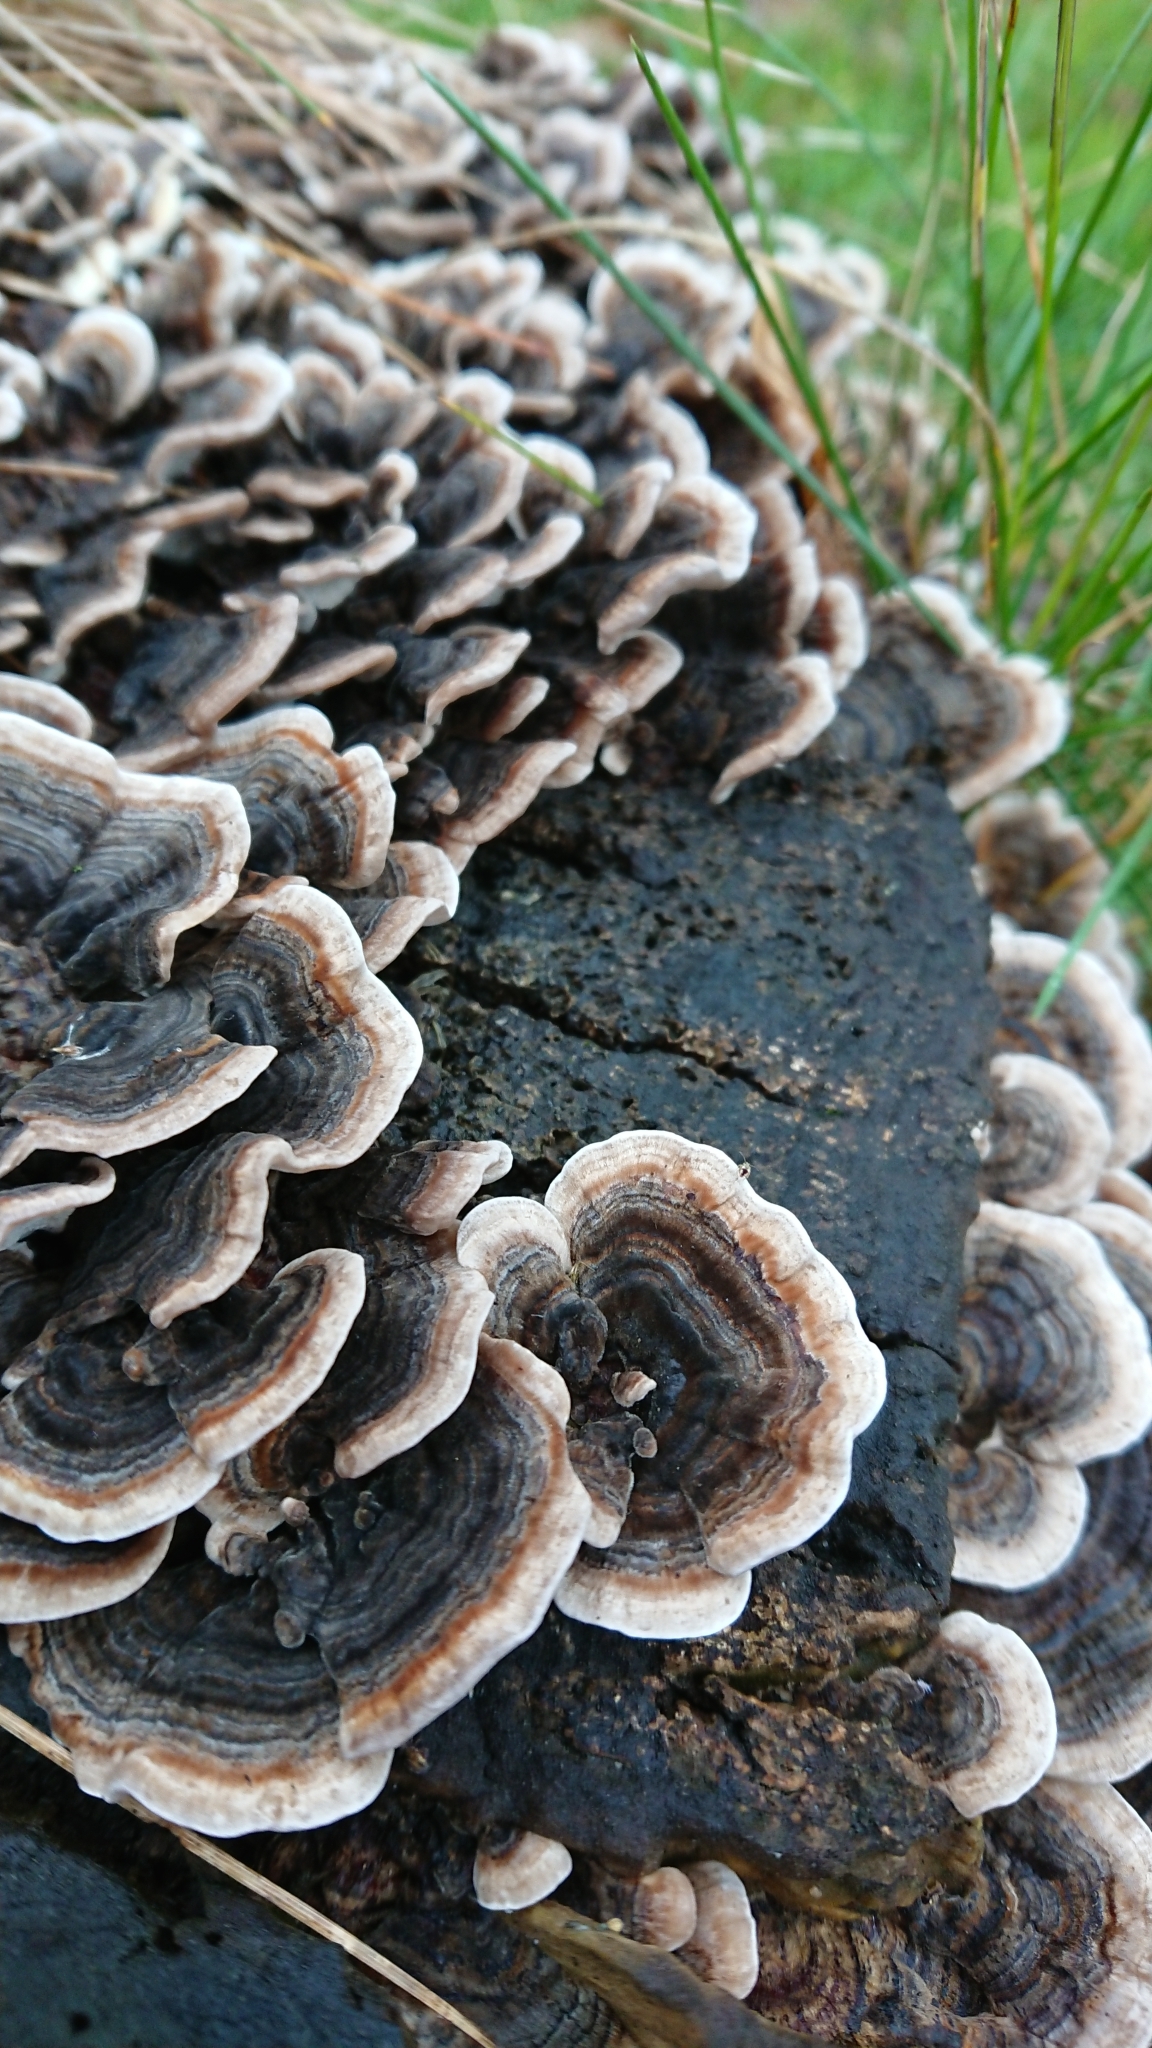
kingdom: Fungi
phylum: Basidiomycota
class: Agaricomycetes
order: Polyporales
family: Polyporaceae
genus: Trametes
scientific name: Trametes versicolor
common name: Turkeytail
